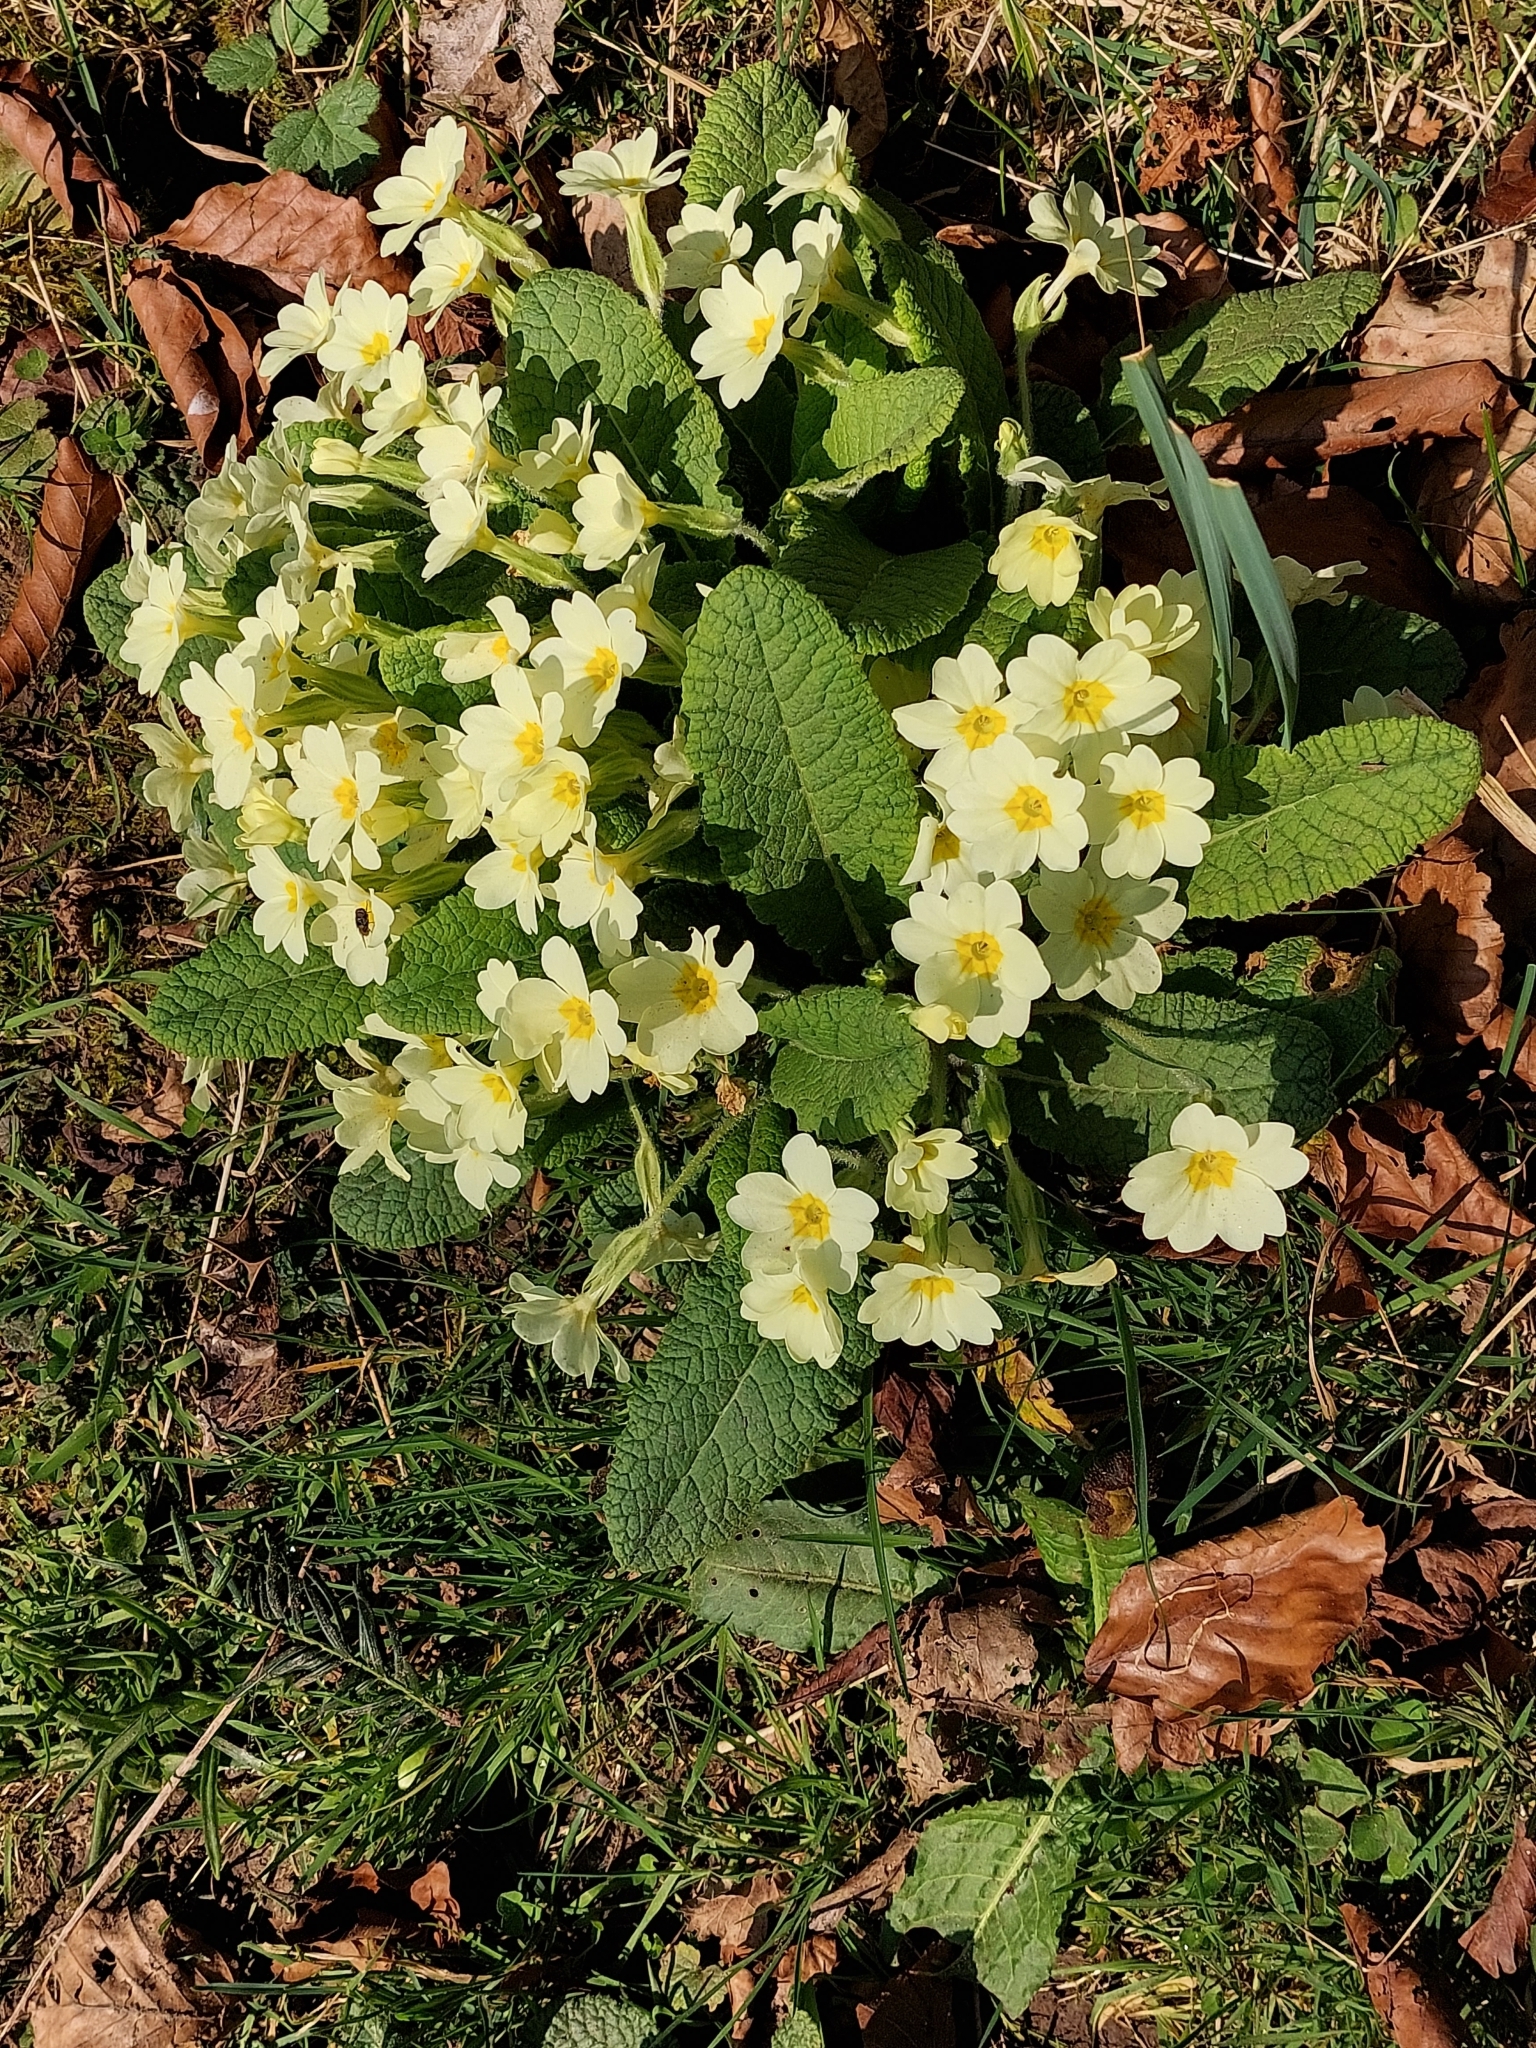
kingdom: Plantae
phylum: Tracheophyta
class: Magnoliopsida
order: Ericales
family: Primulaceae
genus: Primula
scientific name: Primula vulgaris
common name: Primrose
